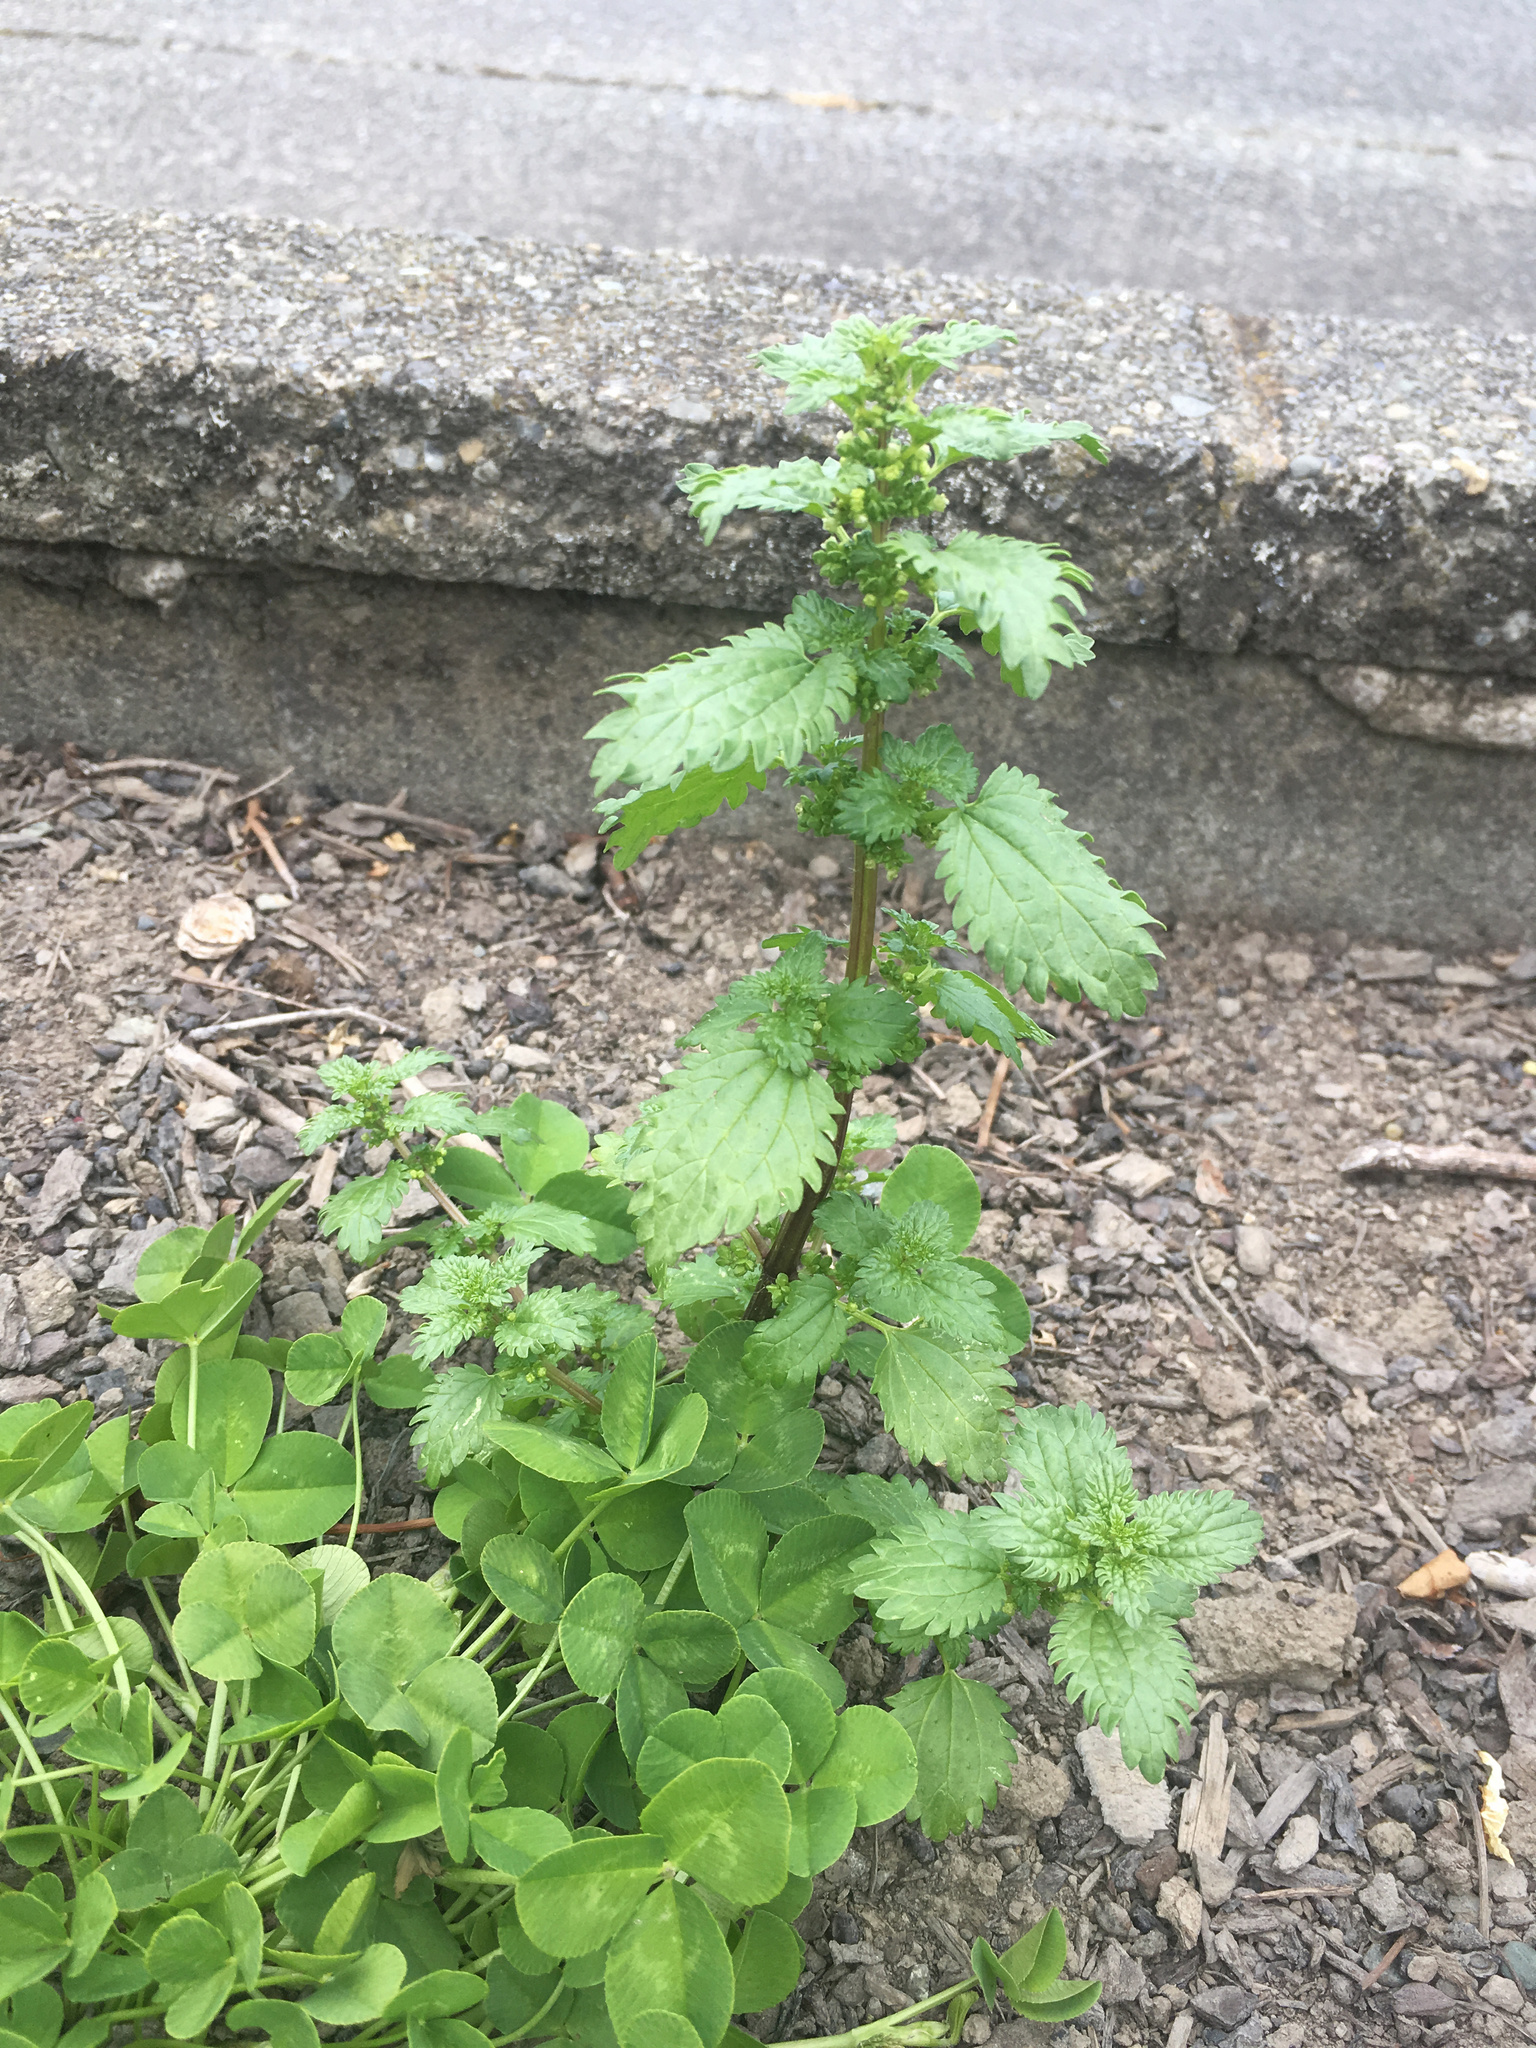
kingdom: Plantae
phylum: Tracheophyta
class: Magnoliopsida
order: Rosales
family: Urticaceae
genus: Urtica
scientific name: Urtica urens
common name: Dwarf nettle
